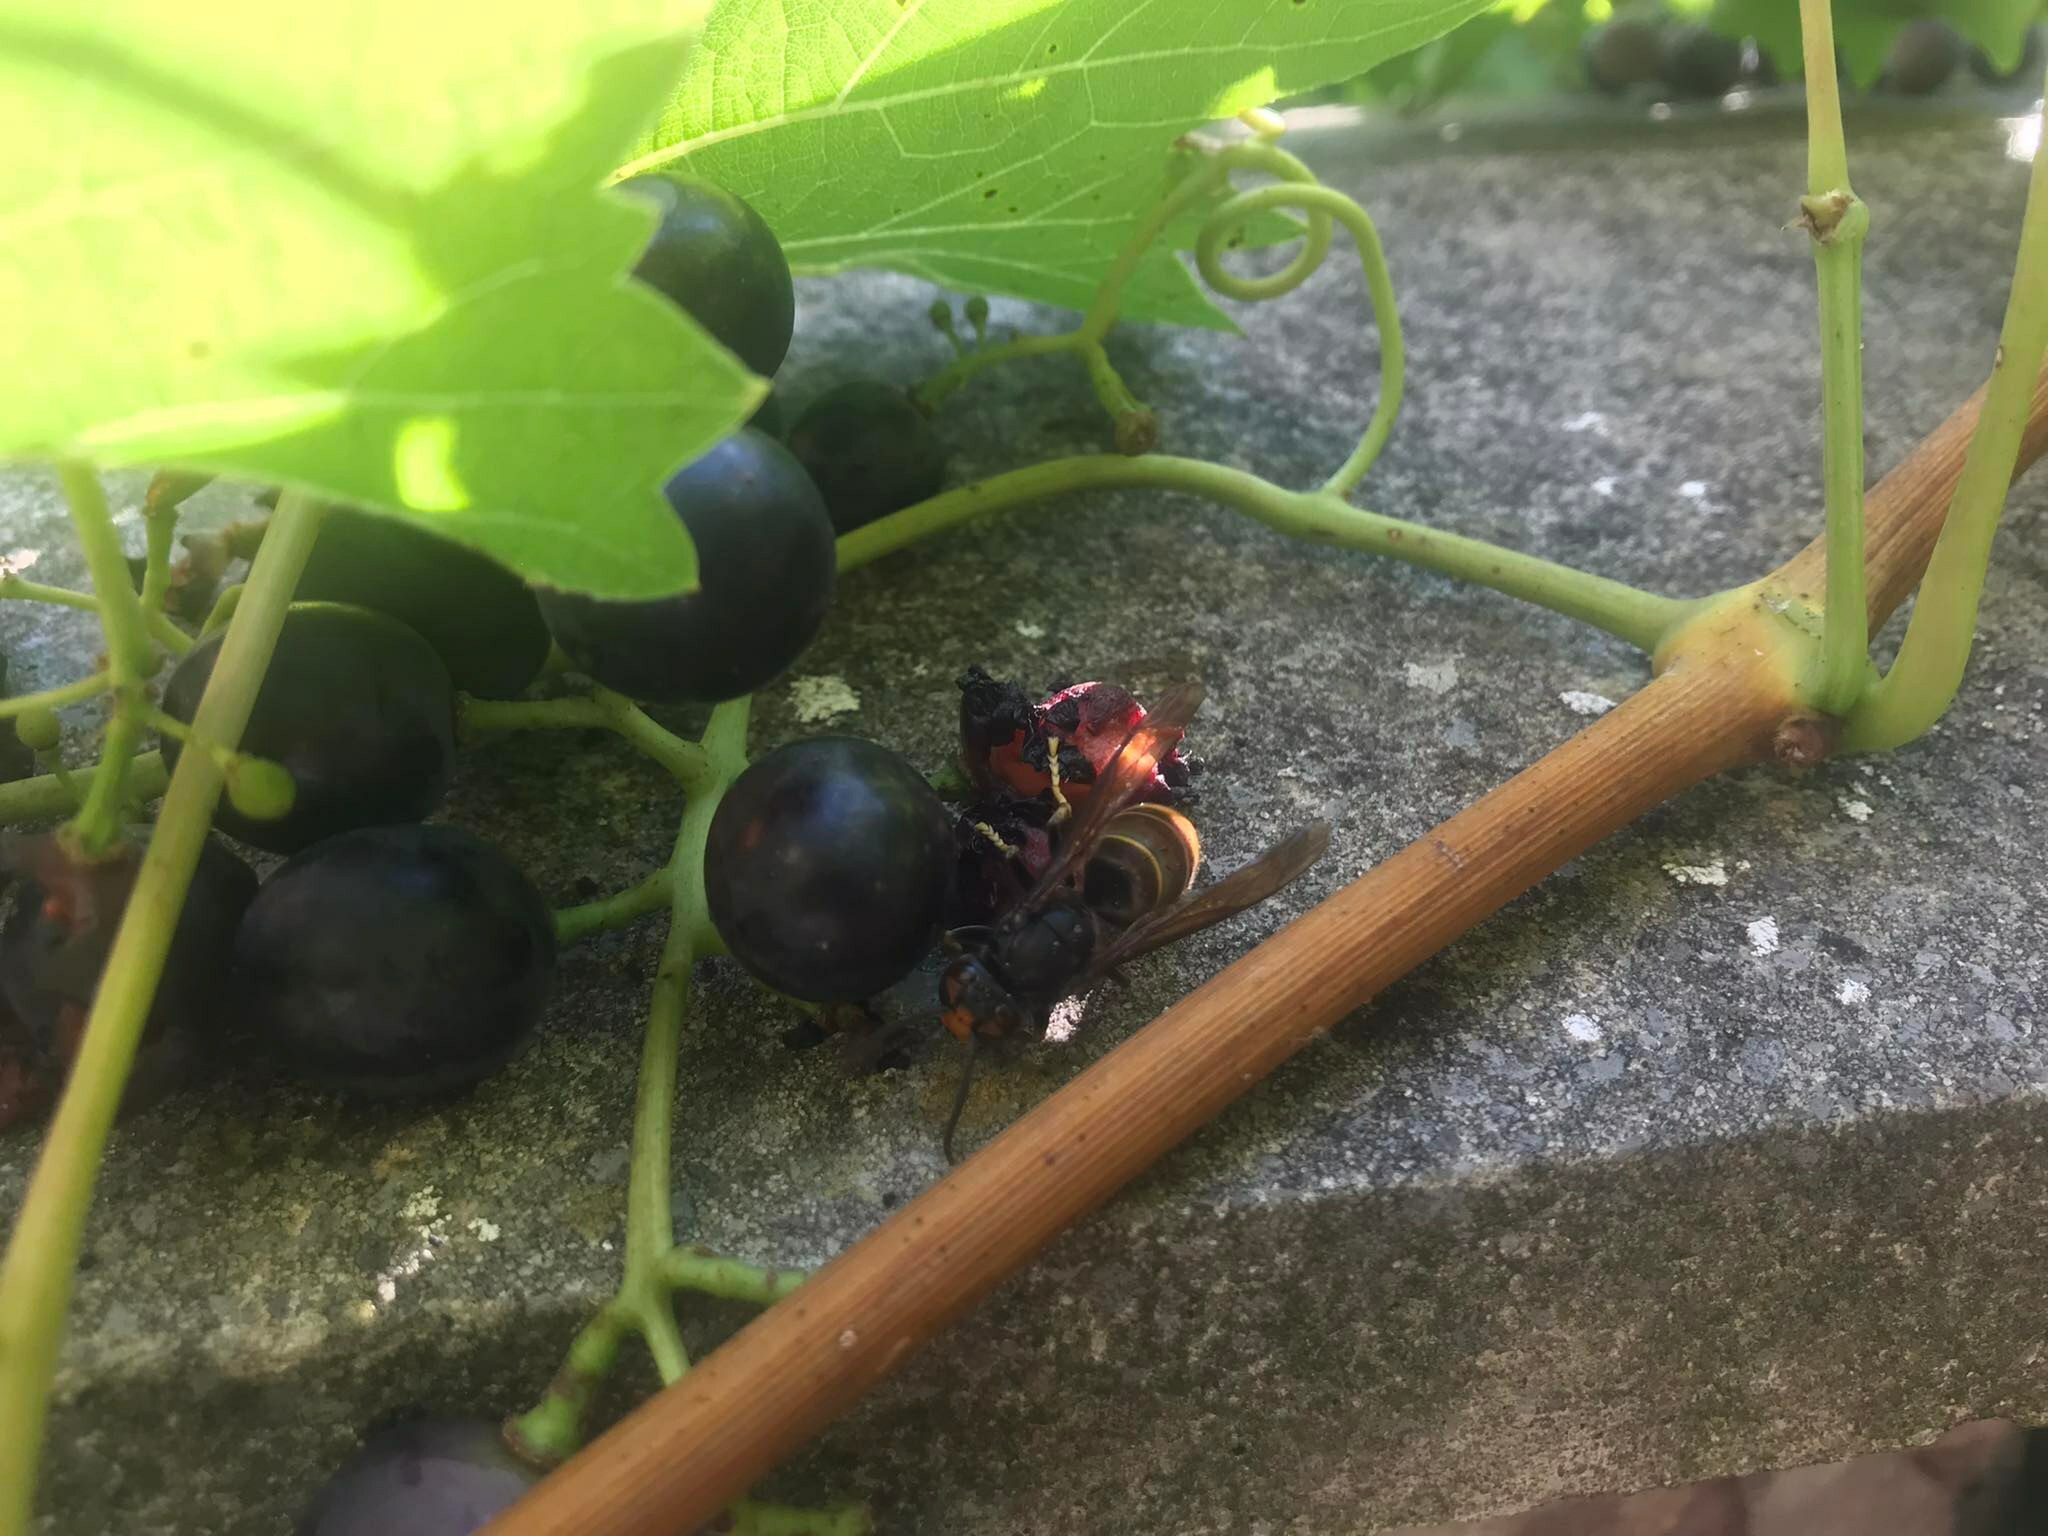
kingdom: Animalia
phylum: Arthropoda
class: Insecta
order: Hymenoptera
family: Vespidae
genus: Vespa
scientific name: Vespa velutina
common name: Asian hornet
